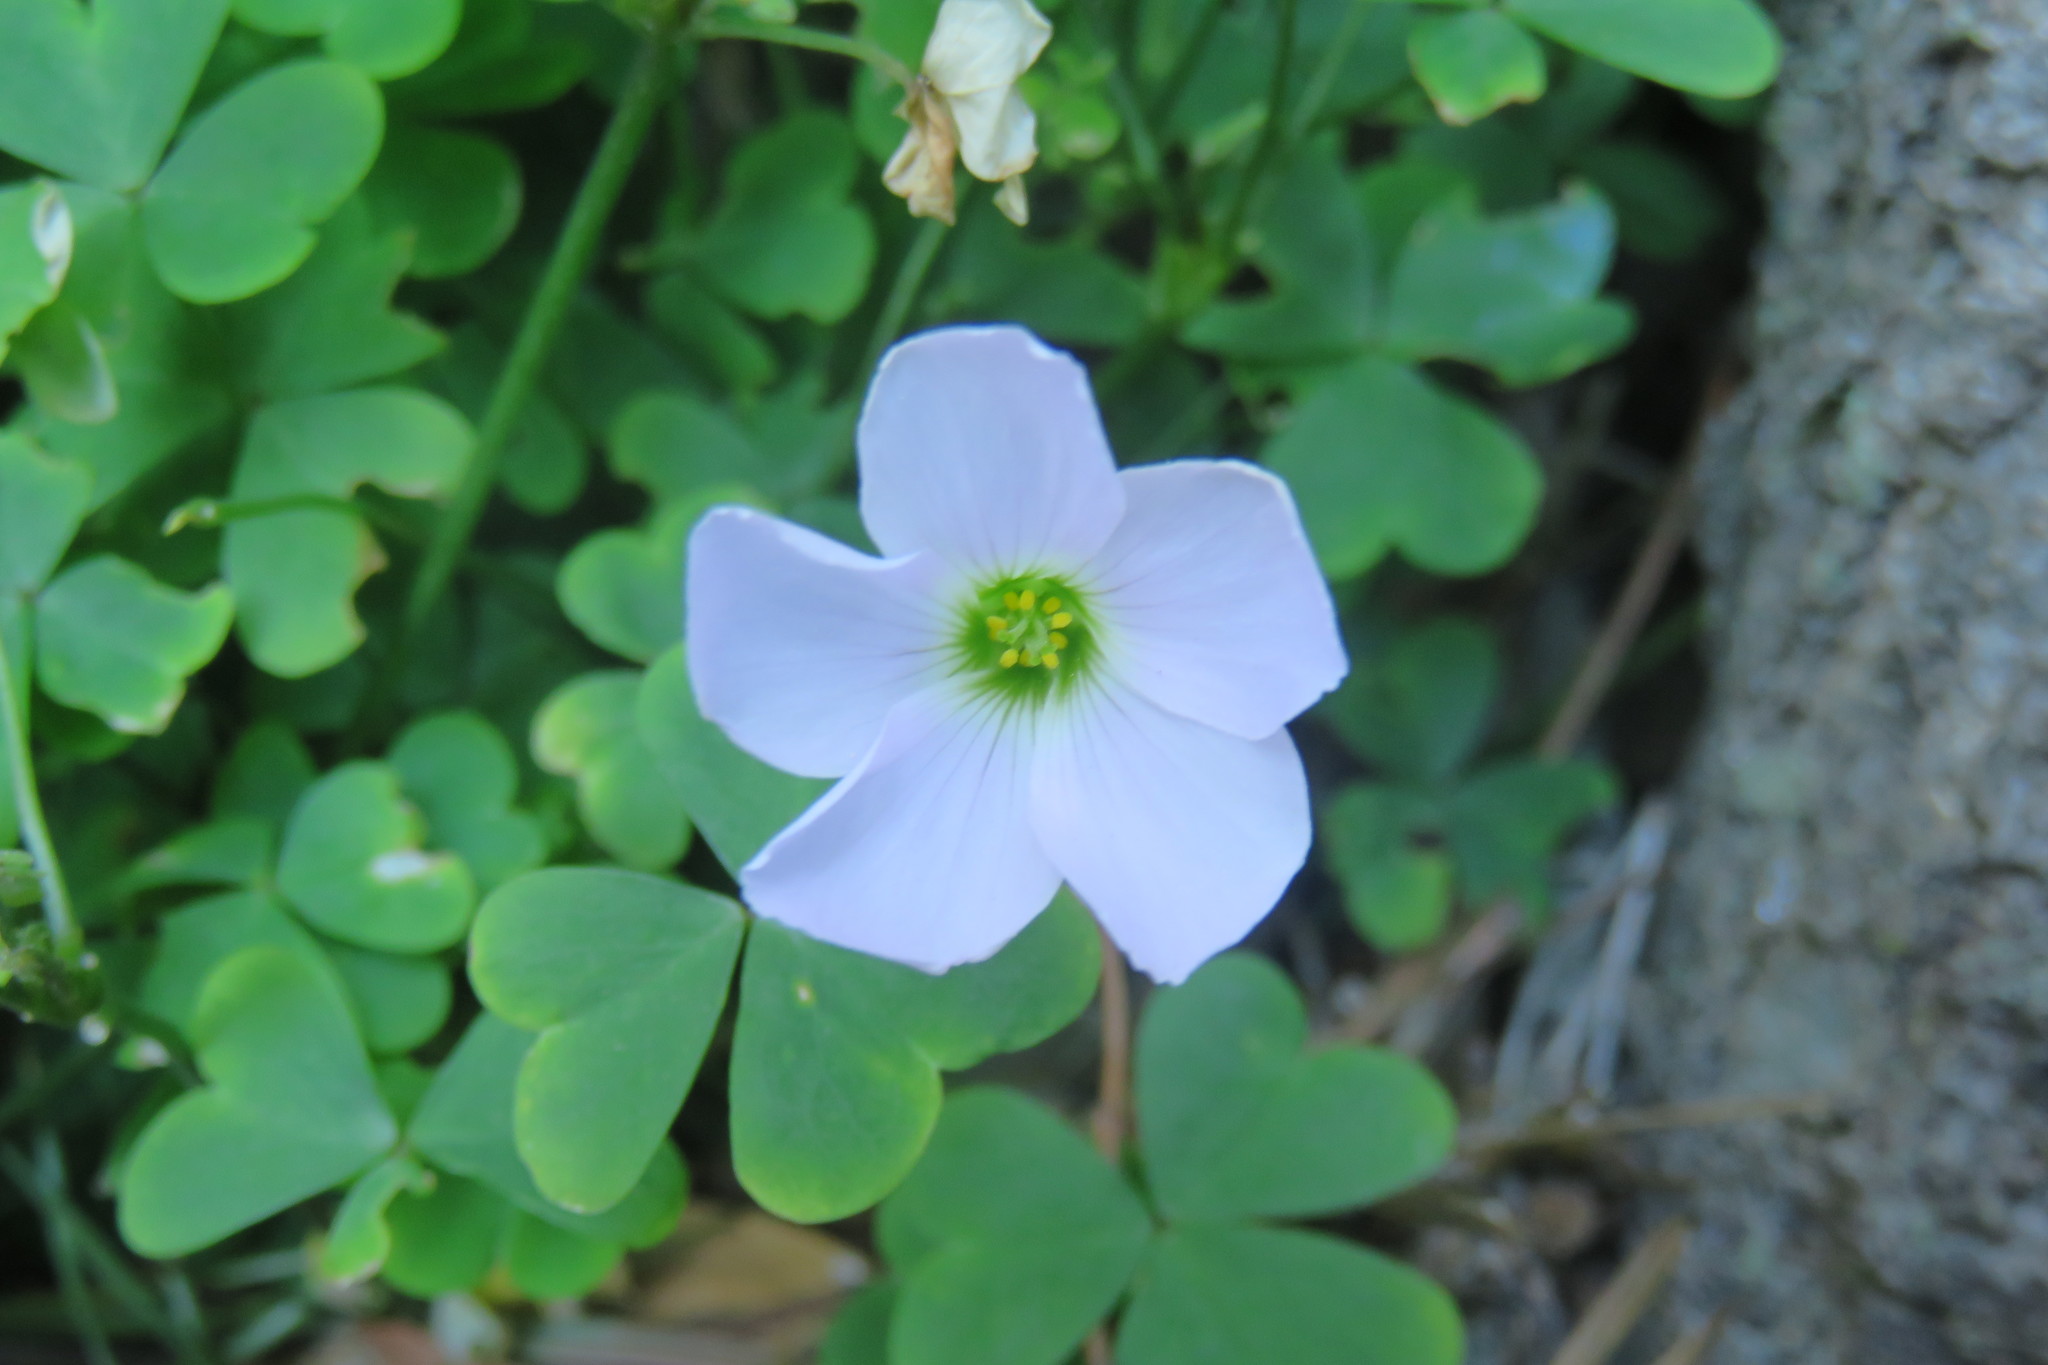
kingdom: Plantae
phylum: Tracheophyta
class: Magnoliopsida
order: Oxalidales
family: Oxalidaceae
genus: Oxalis
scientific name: Oxalis incarnata
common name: Pale pink-sorrel
